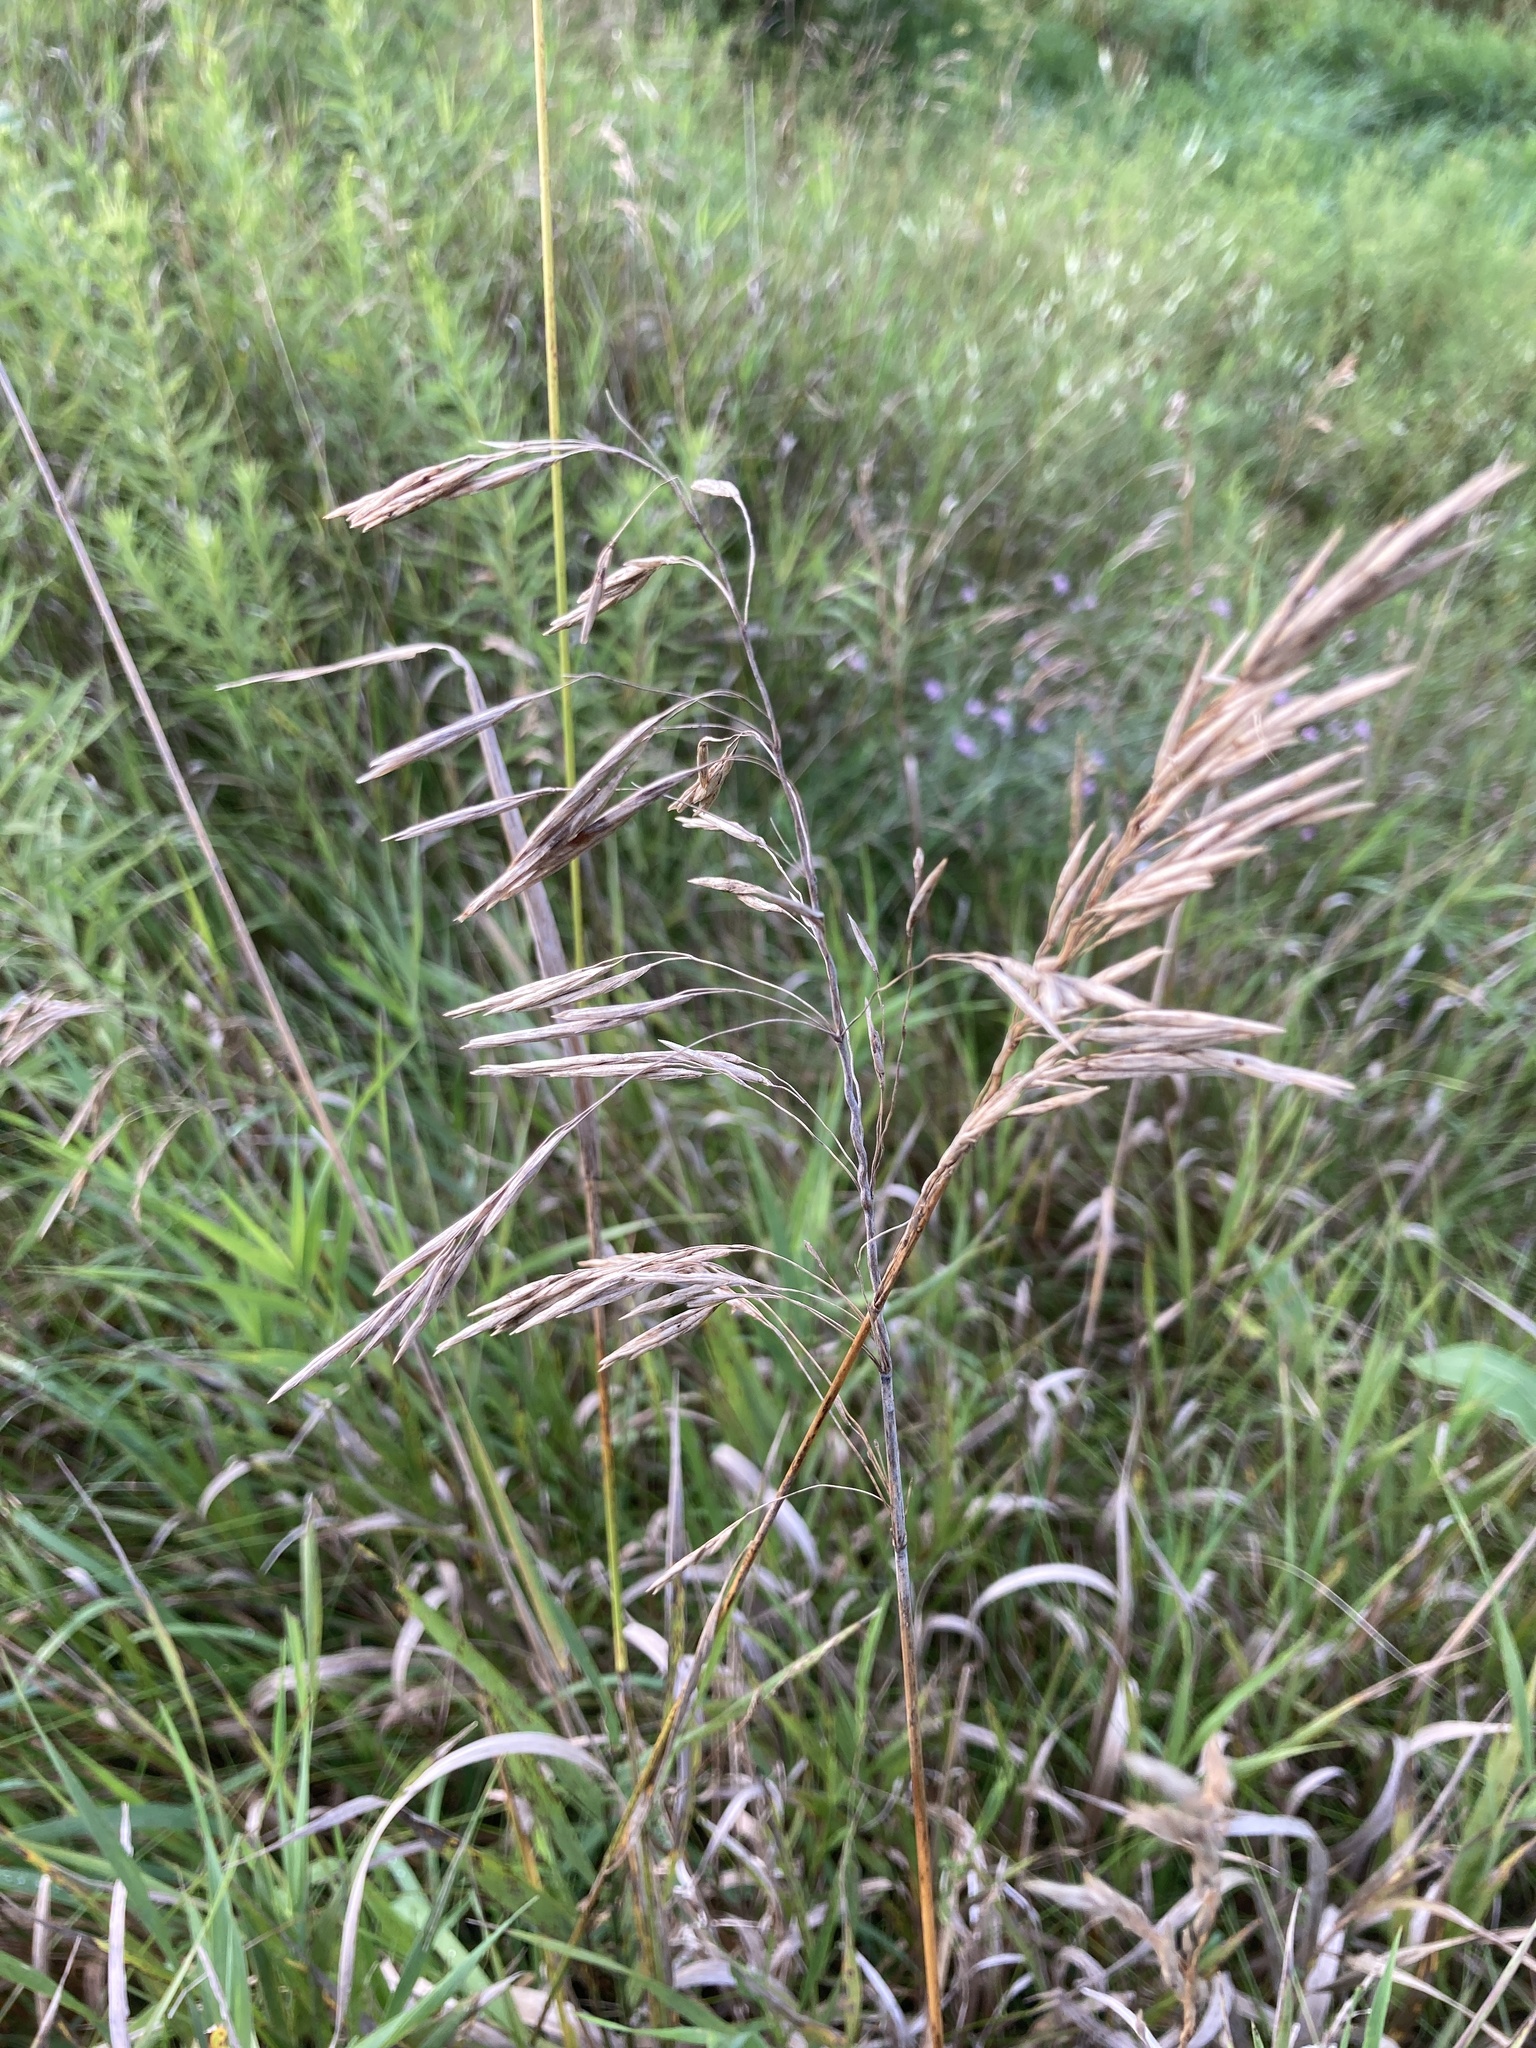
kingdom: Plantae
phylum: Tracheophyta
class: Liliopsida
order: Poales
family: Poaceae
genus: Bromus
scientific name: Bromus inermis
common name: Smooth brome
